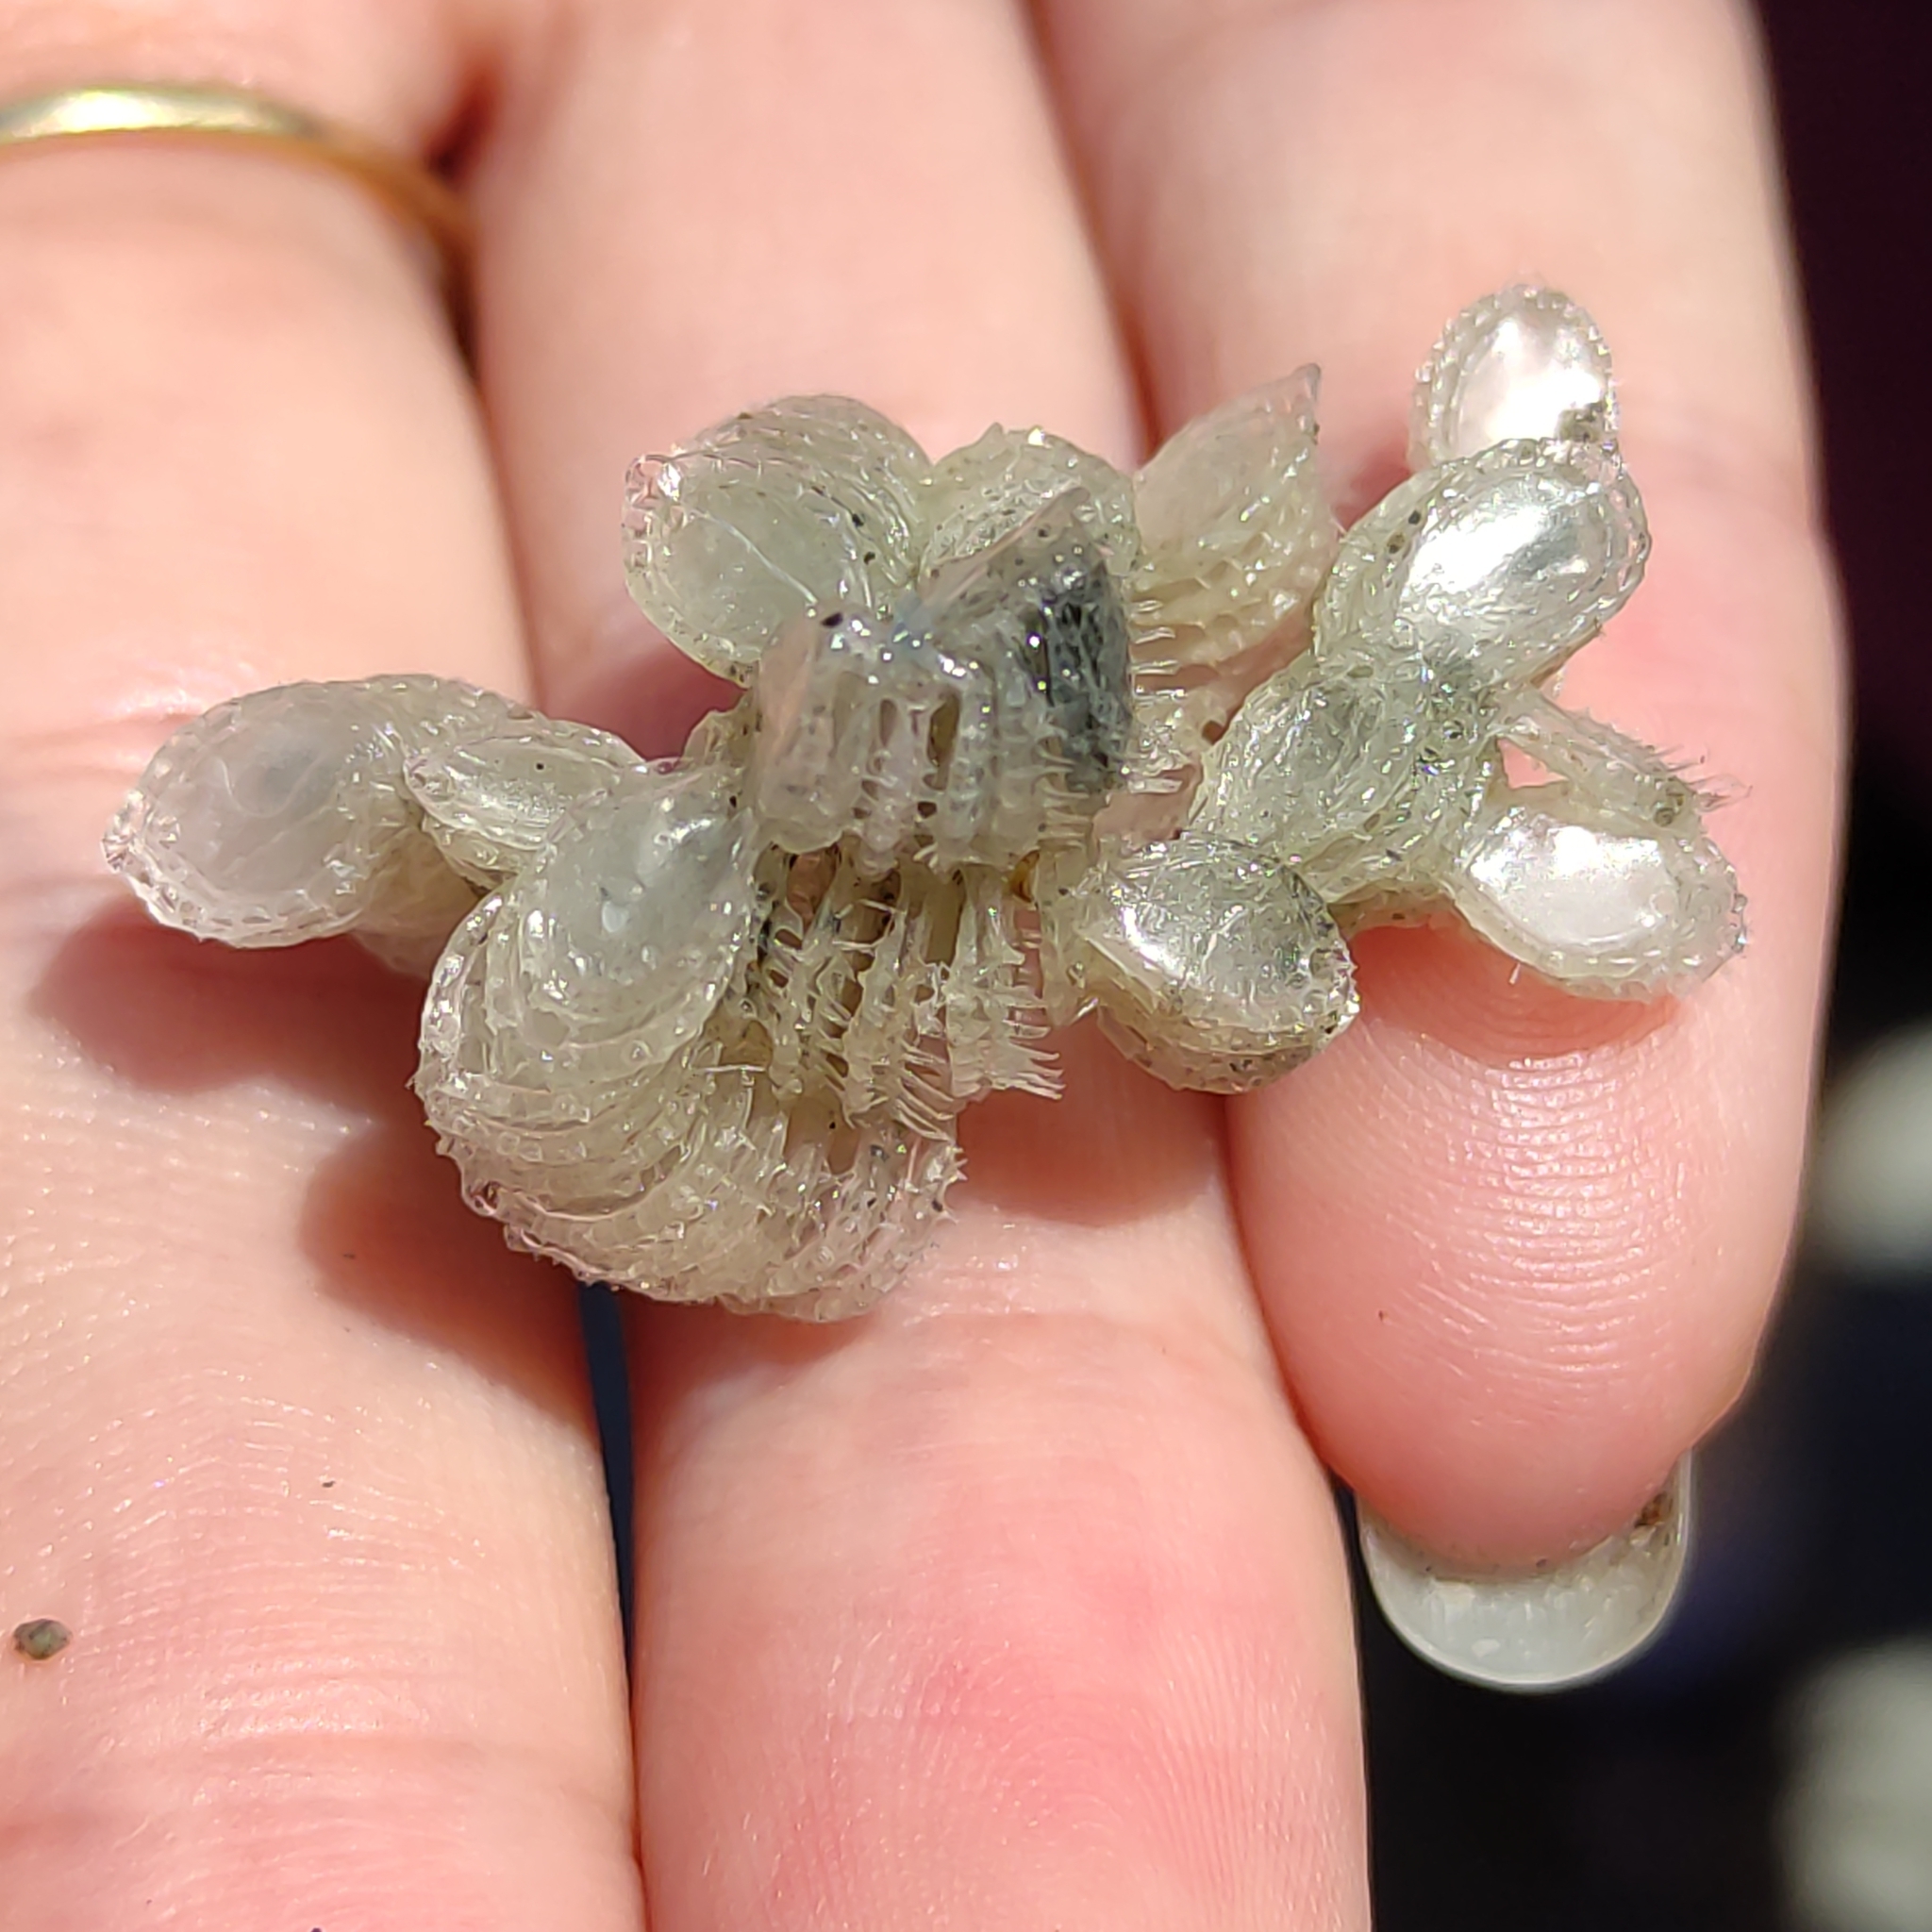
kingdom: Animalia
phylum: Mollusca
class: Gastropoda
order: Neogastropoda
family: Muricidae
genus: Poirieria
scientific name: Poirieria zelandica
